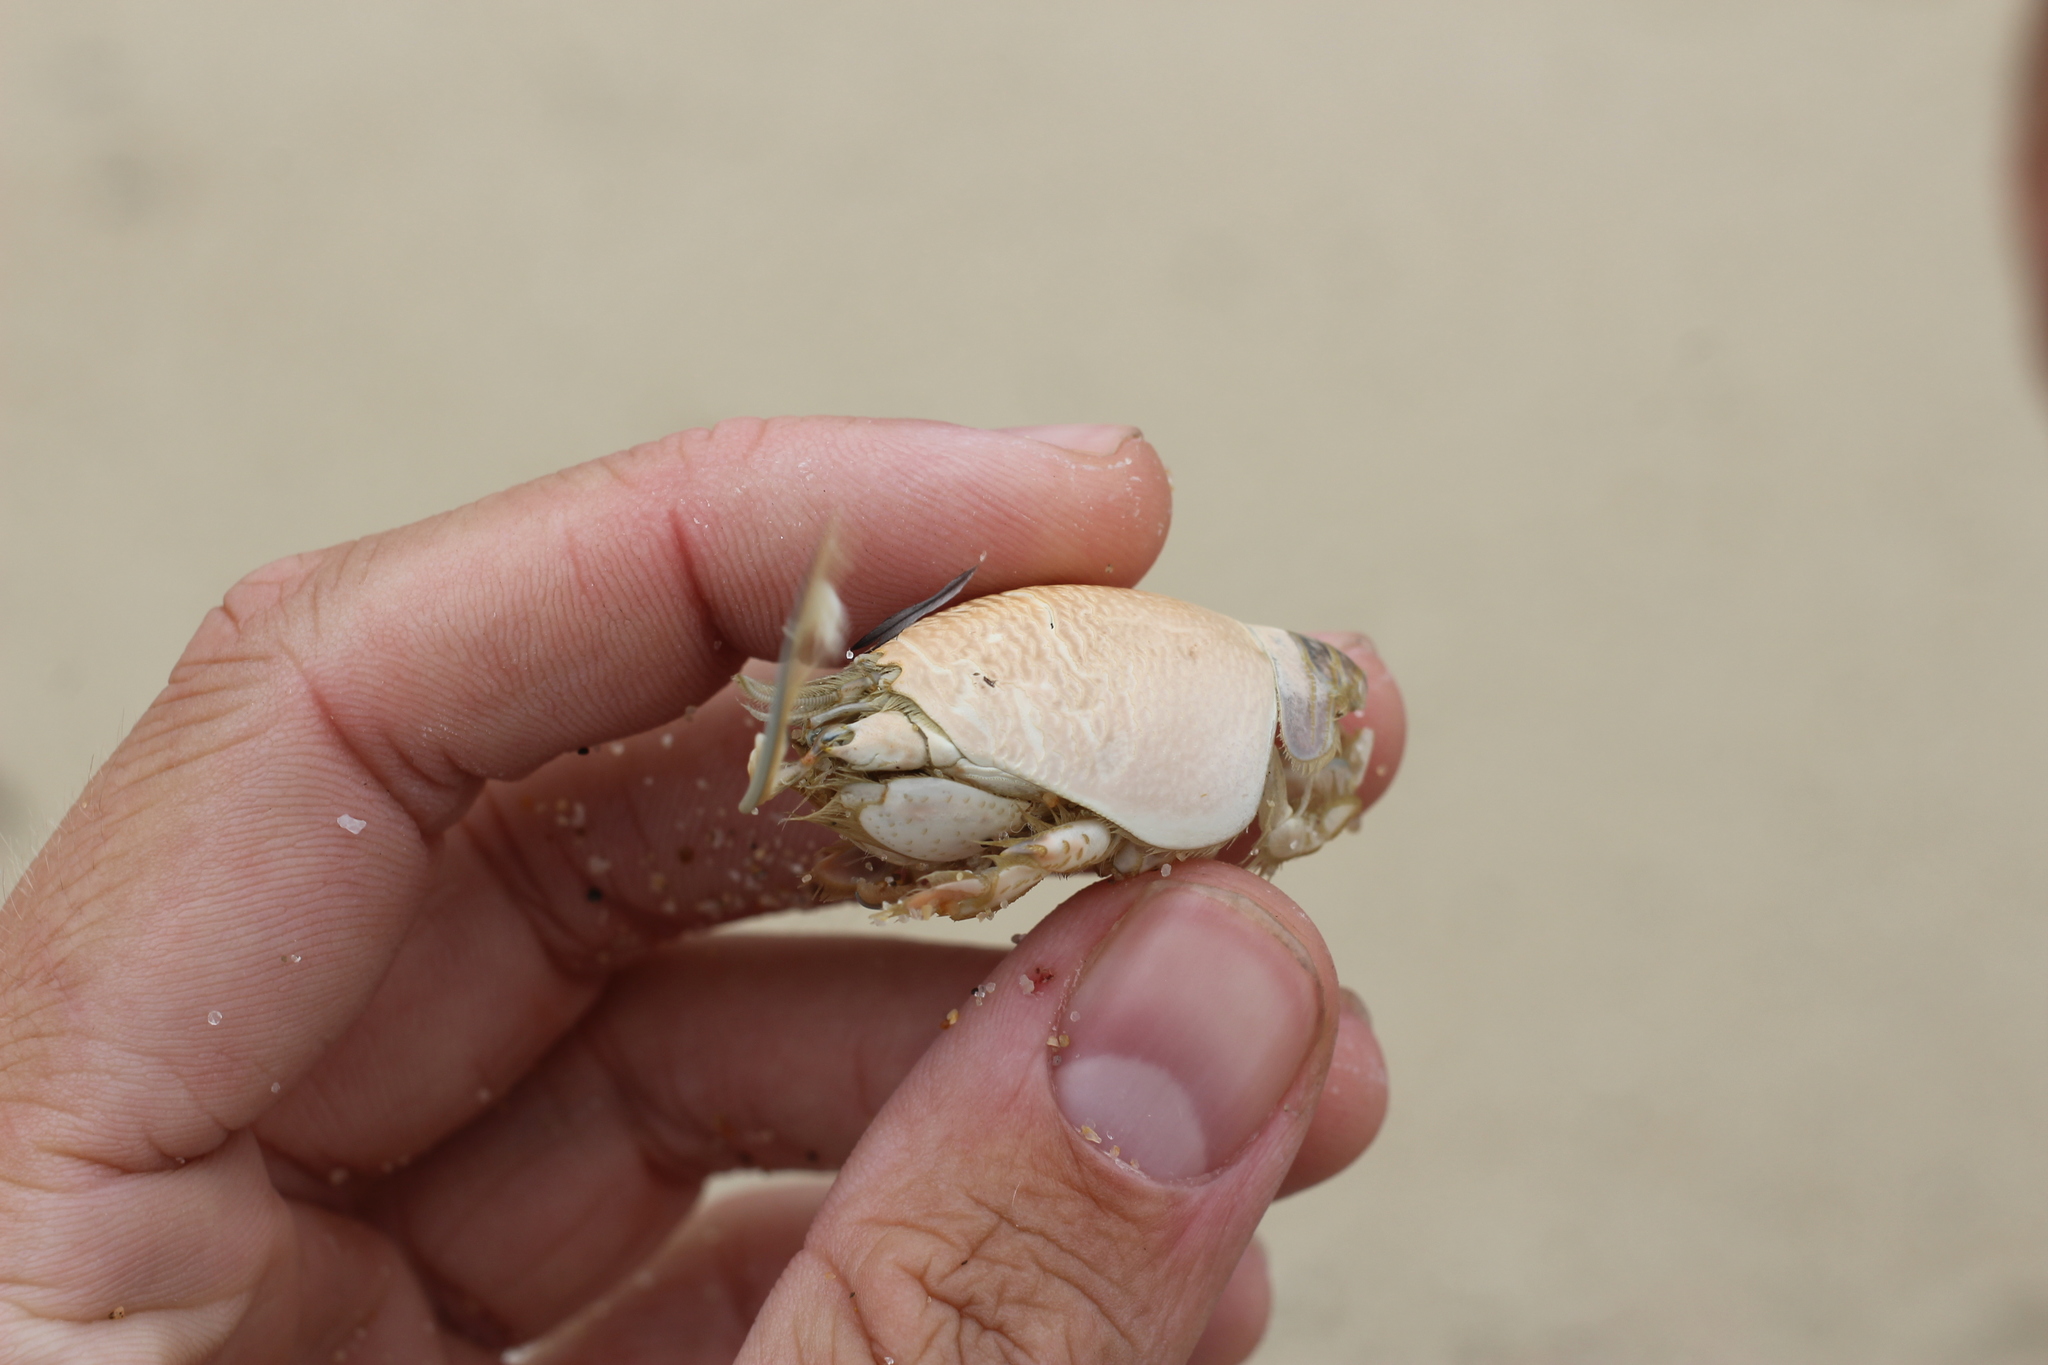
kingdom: Animalia
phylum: Arthropoda
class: Malacostraca
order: Decapoda
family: Hippidae
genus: Emerita
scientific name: Emerita analoga
